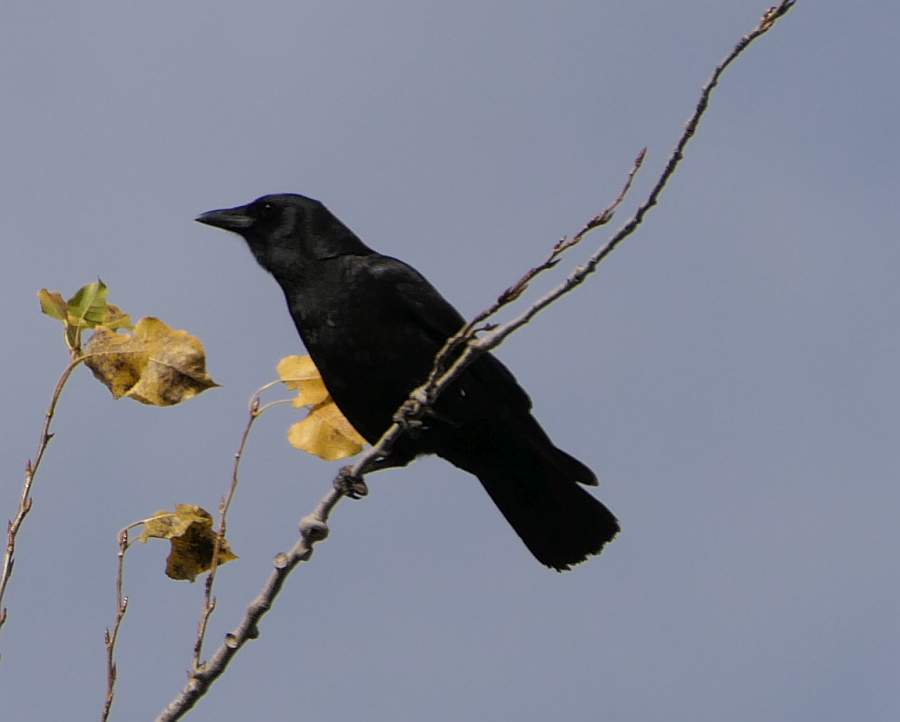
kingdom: Animalia
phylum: Chordata
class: Aves
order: Passeriformes
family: Corvidae
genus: Corvus
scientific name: Corvus brachyrhynchos
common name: American crow
